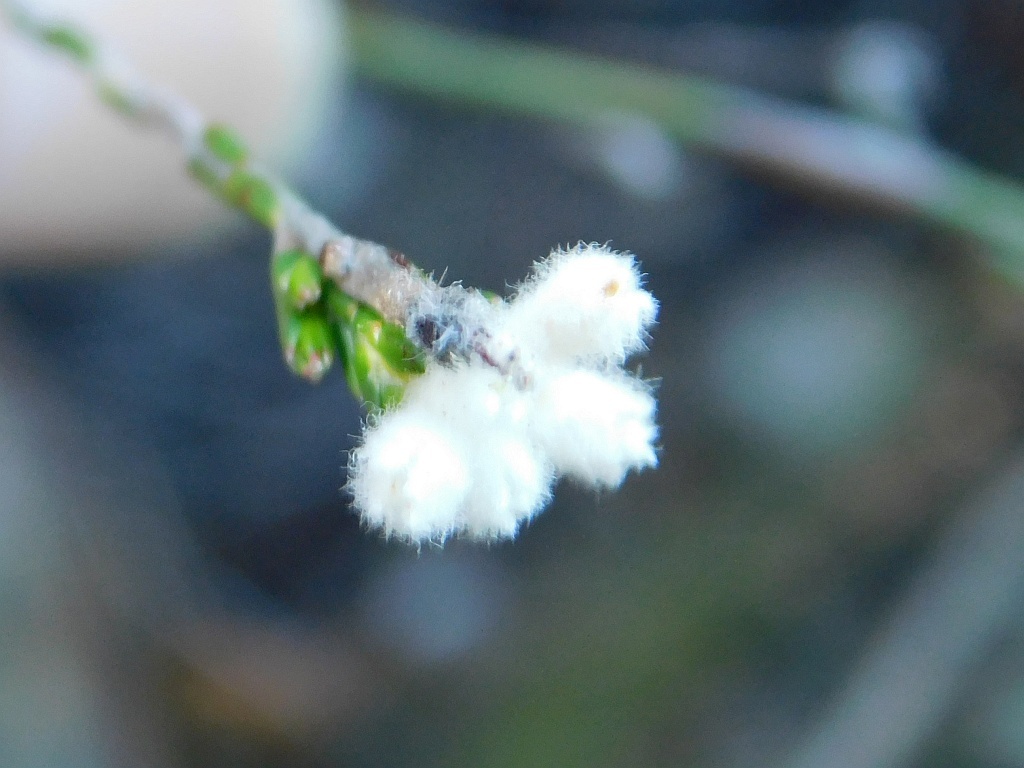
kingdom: Plantae
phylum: Tracheophyta
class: Magnoliopsida
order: Malvales
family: Thymelaeaceae
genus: Lachnaea
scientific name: Lachnaea greytonensis
